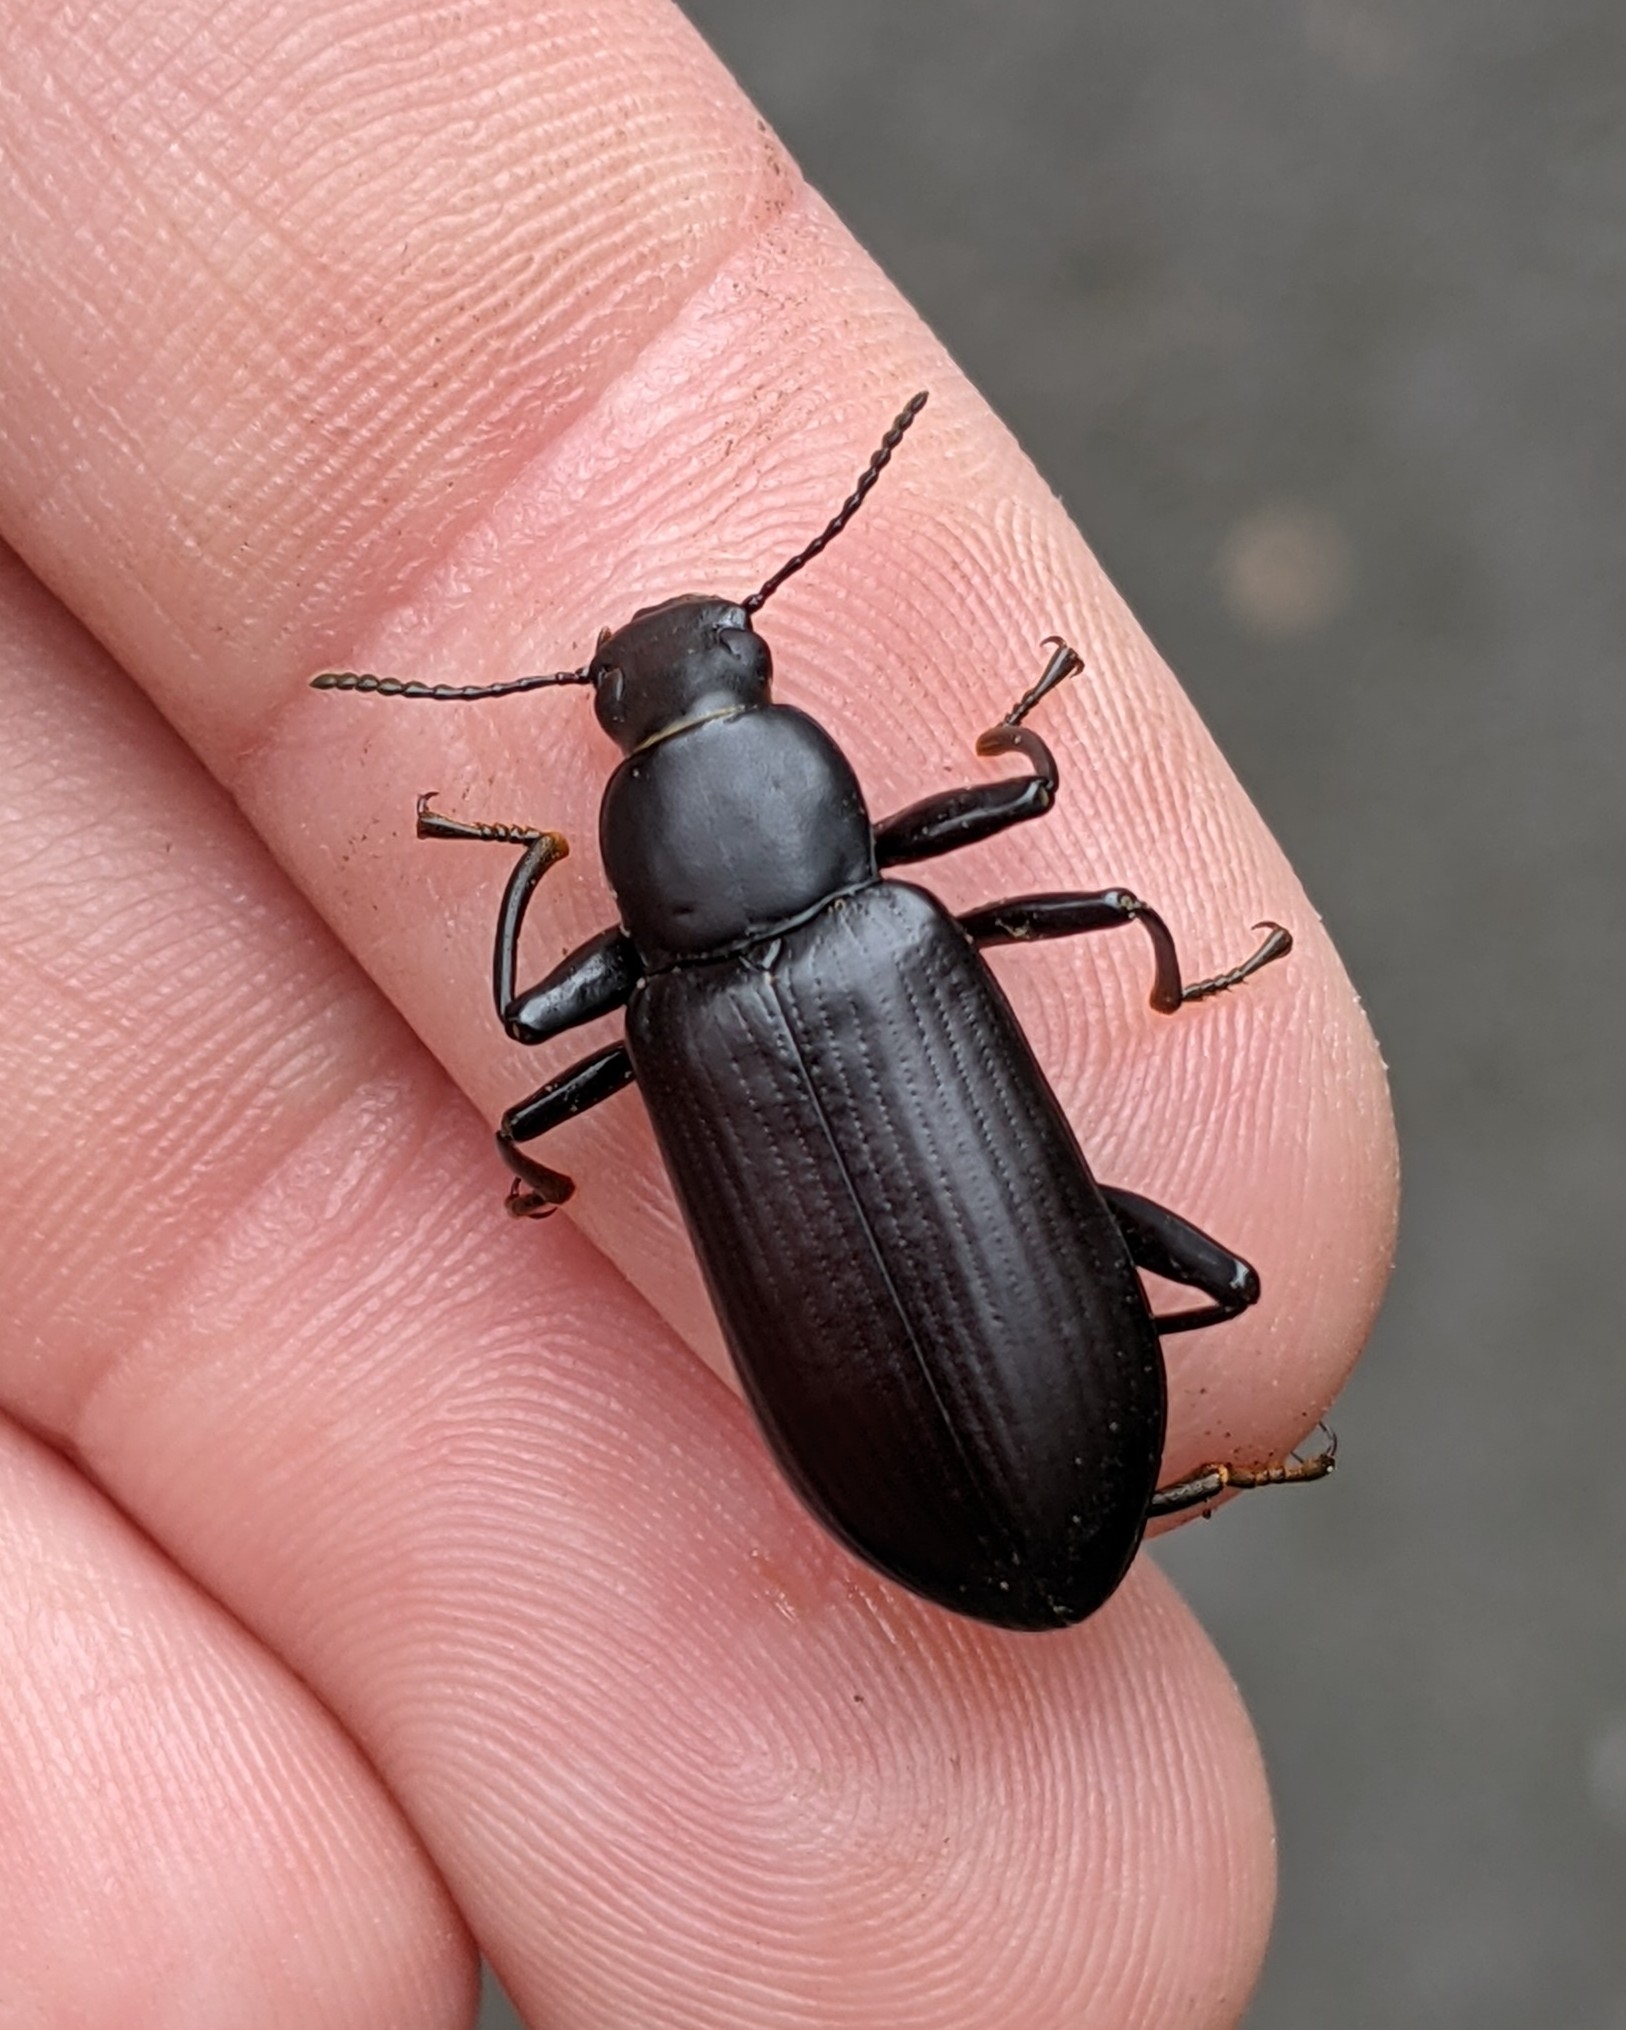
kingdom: Animalia
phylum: Arthropoda
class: Insecta
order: Coleoptera
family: Tenebrionidae
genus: Alobates
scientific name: Alobates pensylvanicus
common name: False mealworm beetle
